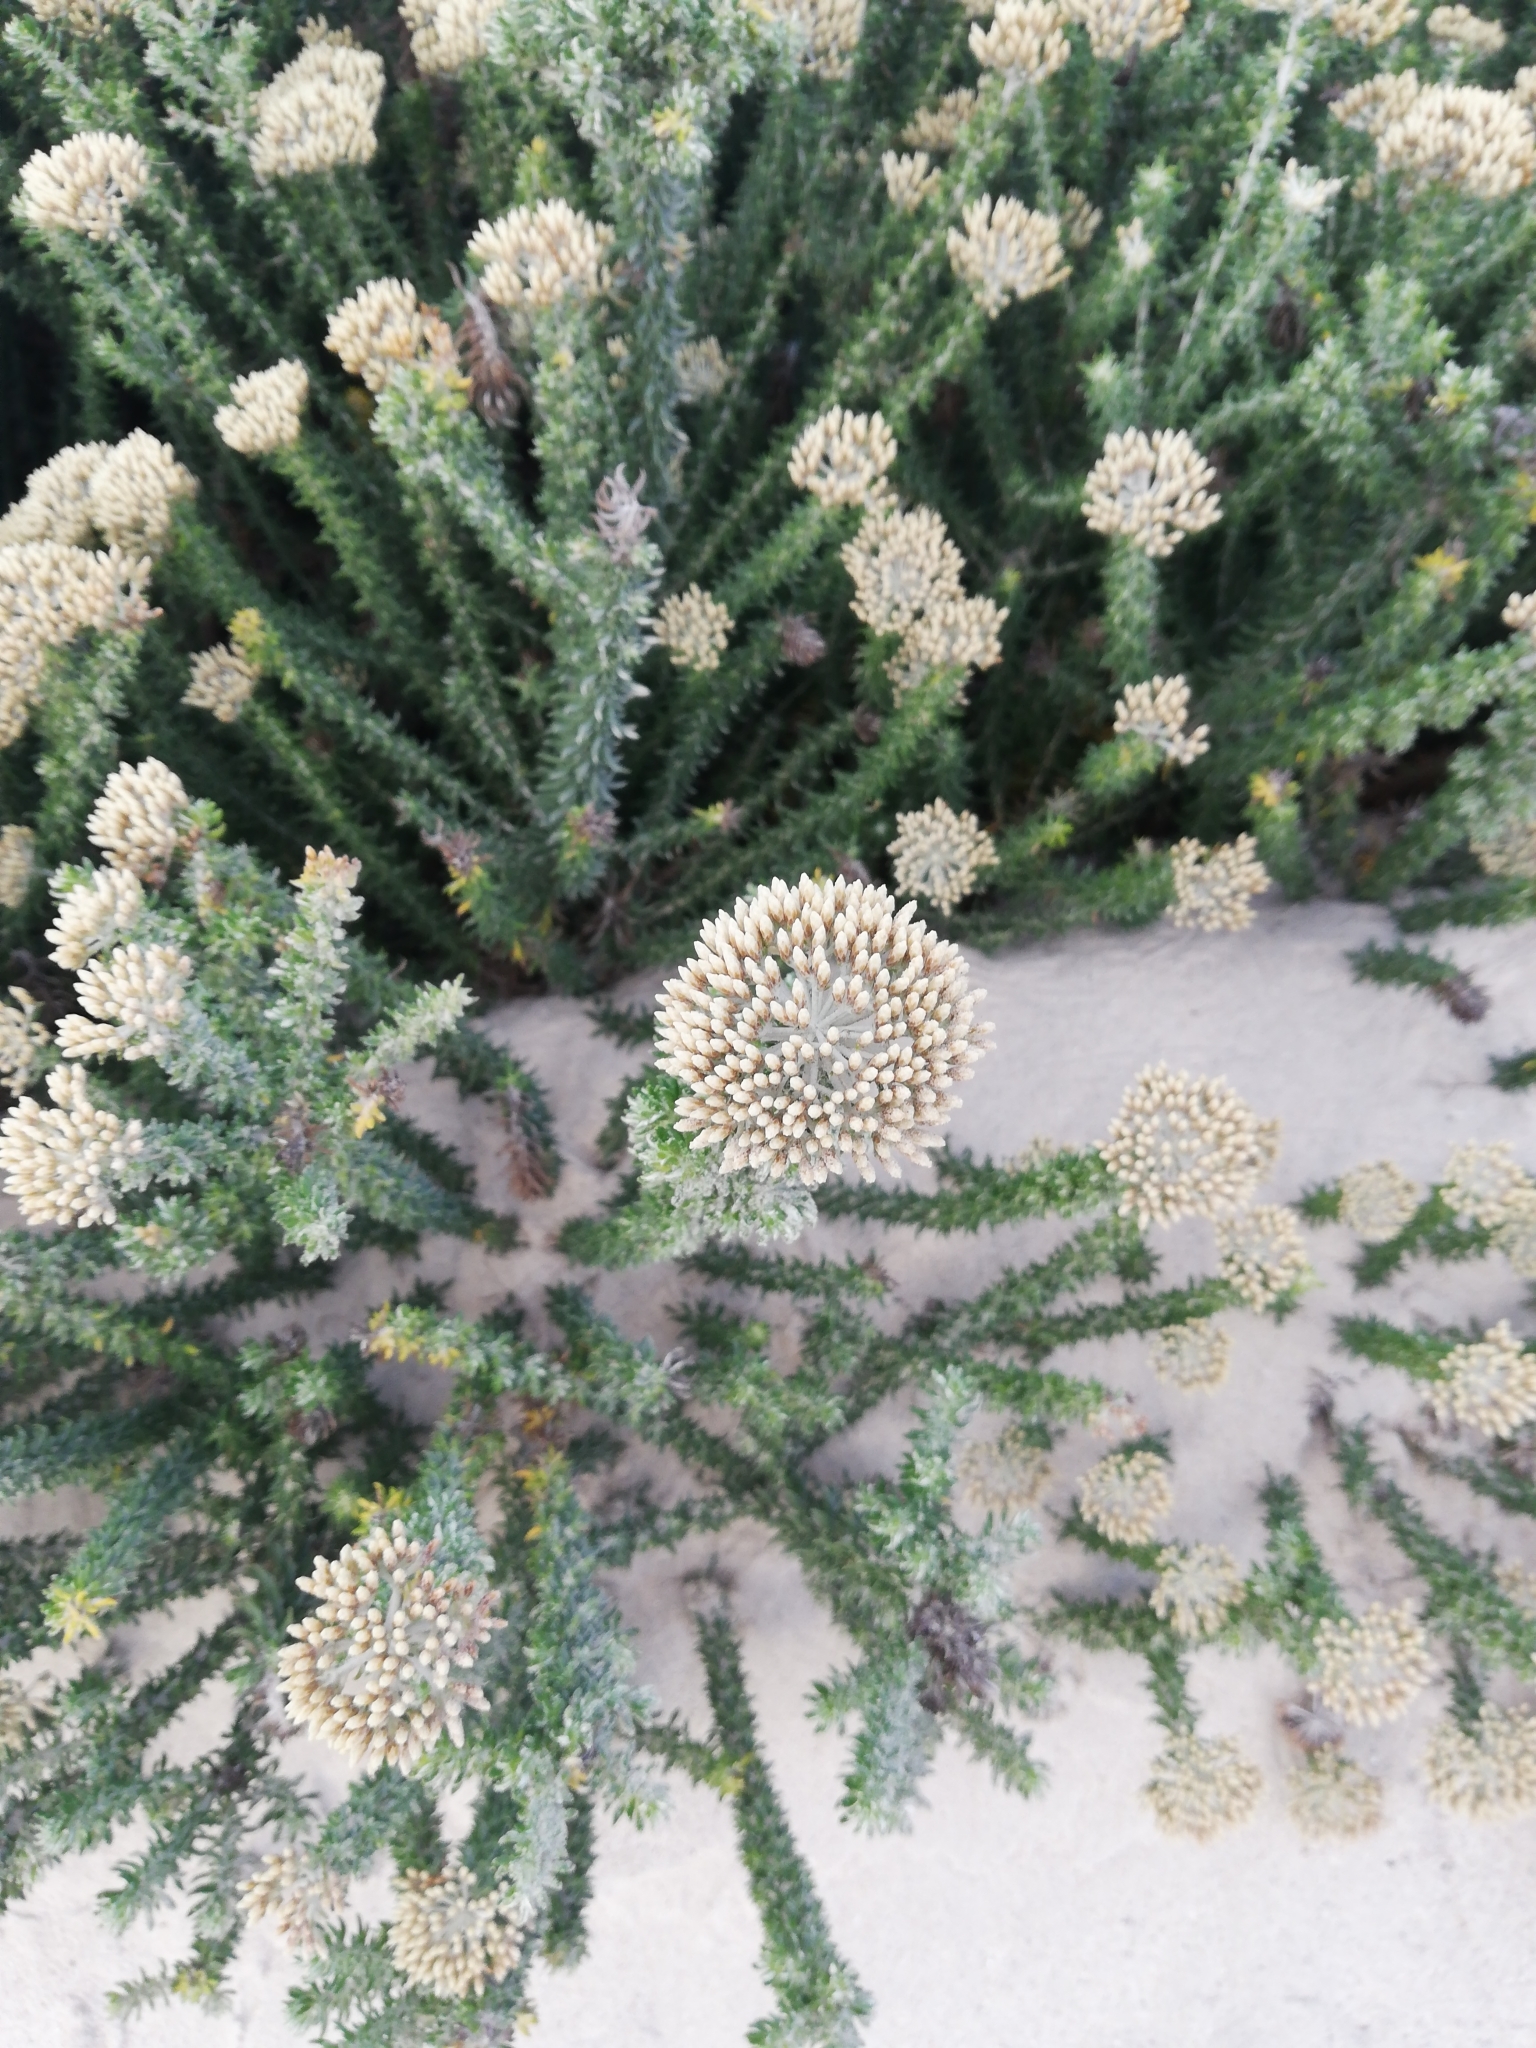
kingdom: Plantae
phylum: Tracheophyta
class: Magnoliopsida
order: Asterales
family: Asteraceae
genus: Metalasia
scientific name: Metalasia muricata
